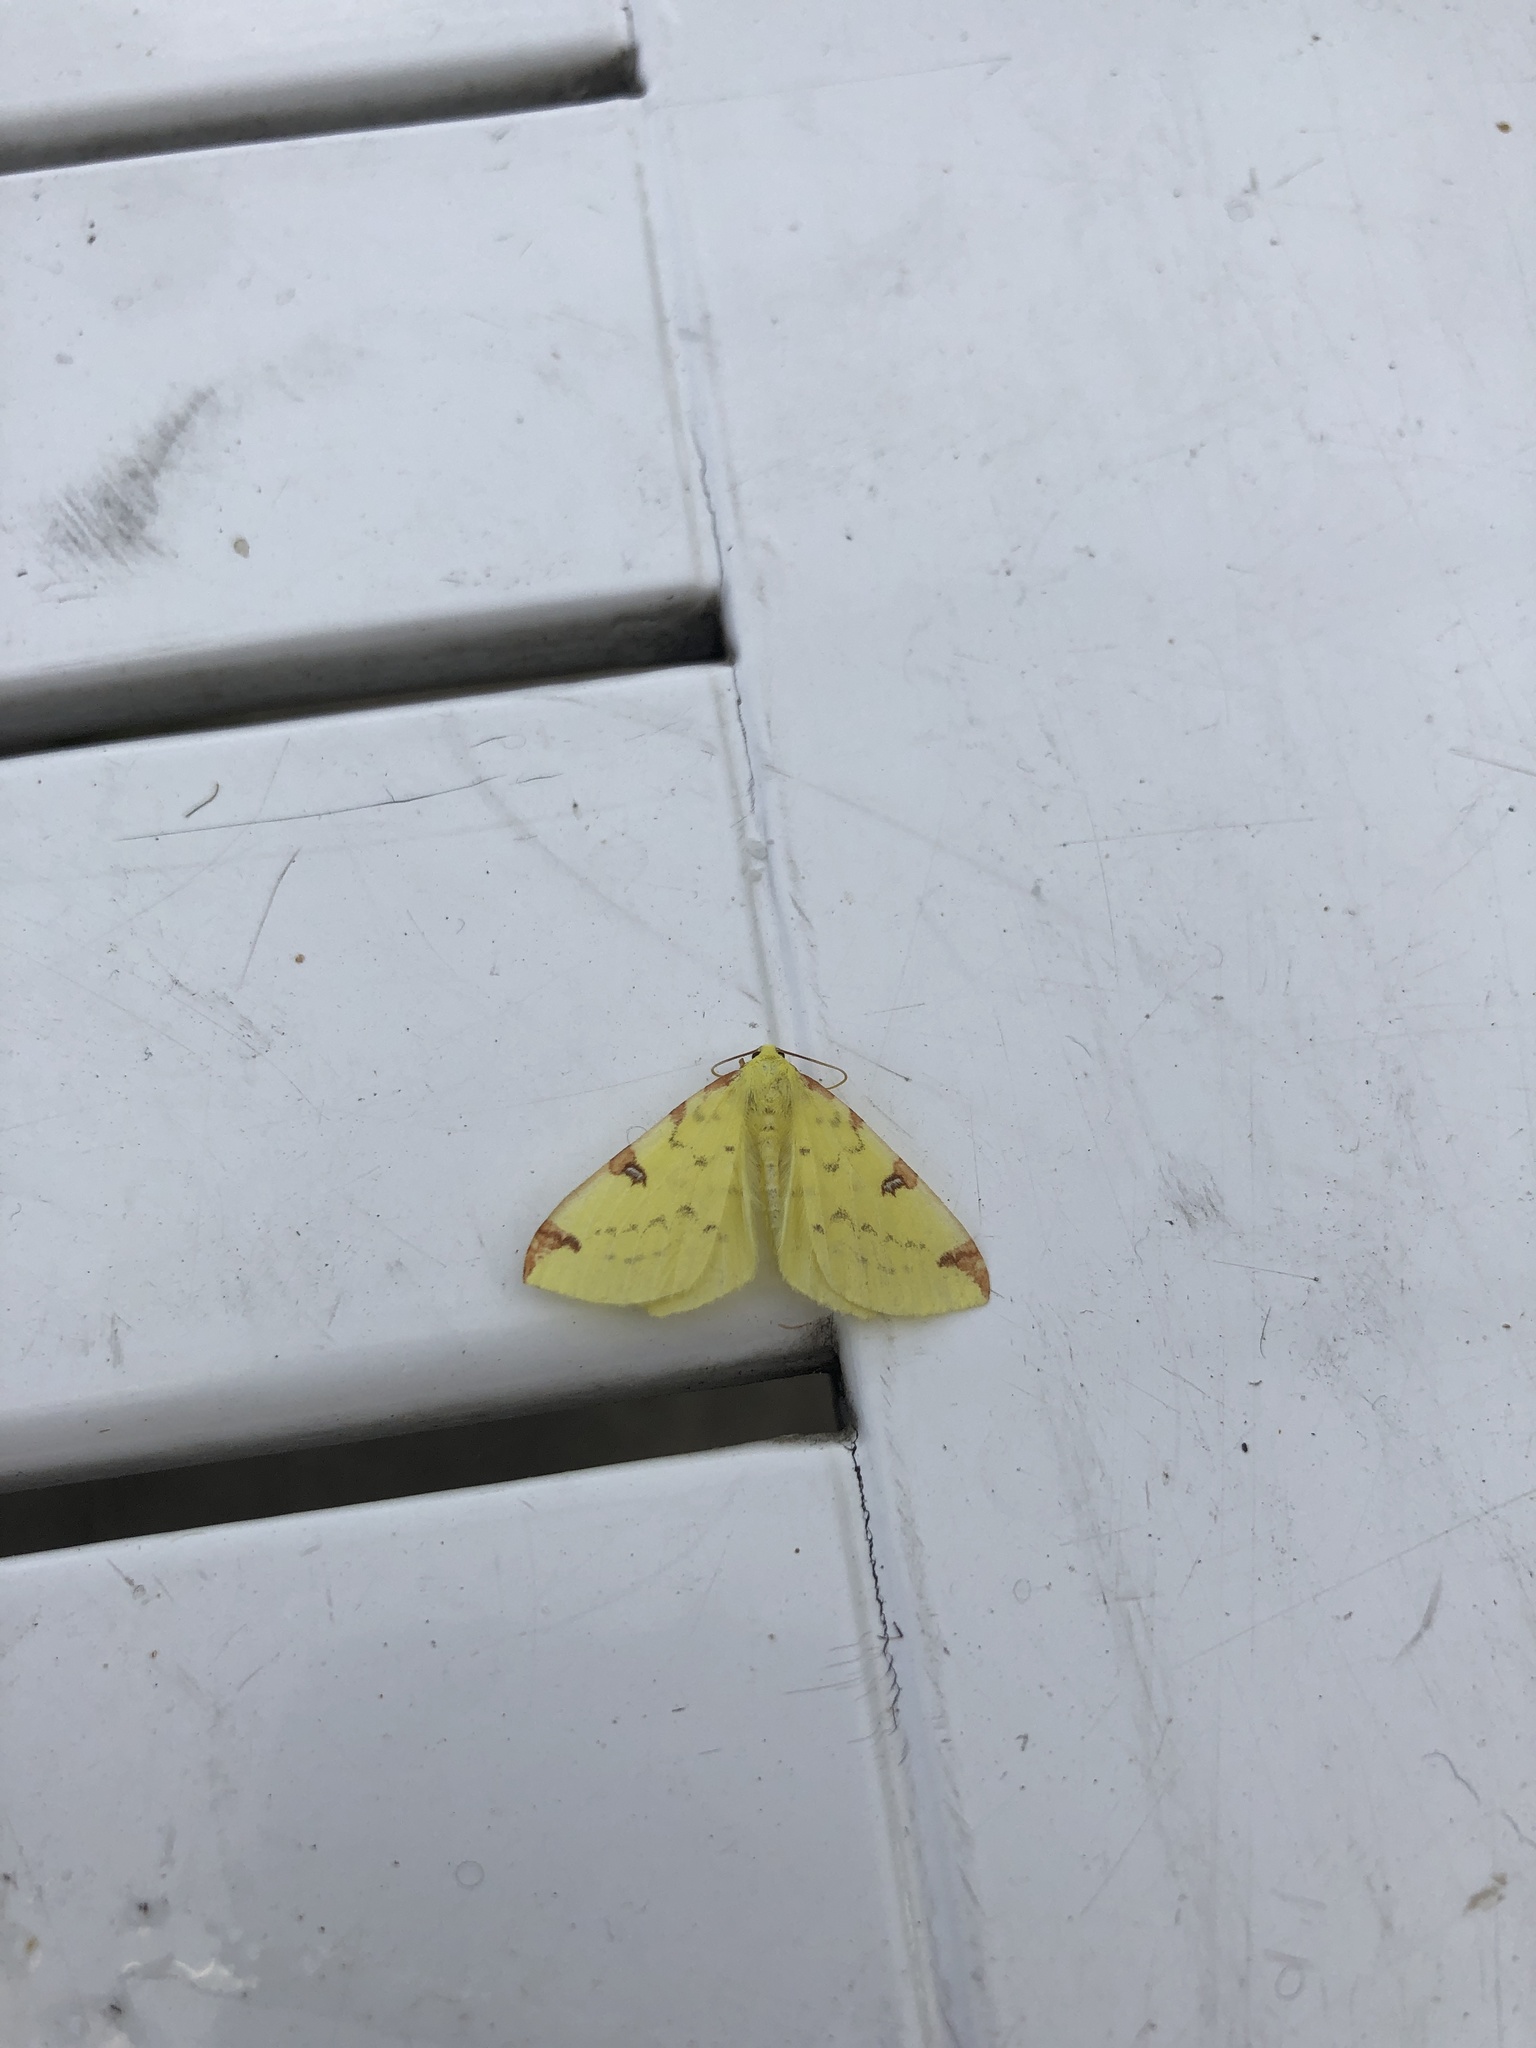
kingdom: Animalia
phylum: Arthropoda
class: Insecta
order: Lepidoptera
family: Geometridae
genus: Opisthograptis
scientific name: Opisthograptis luteolata
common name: Brimstone moth
